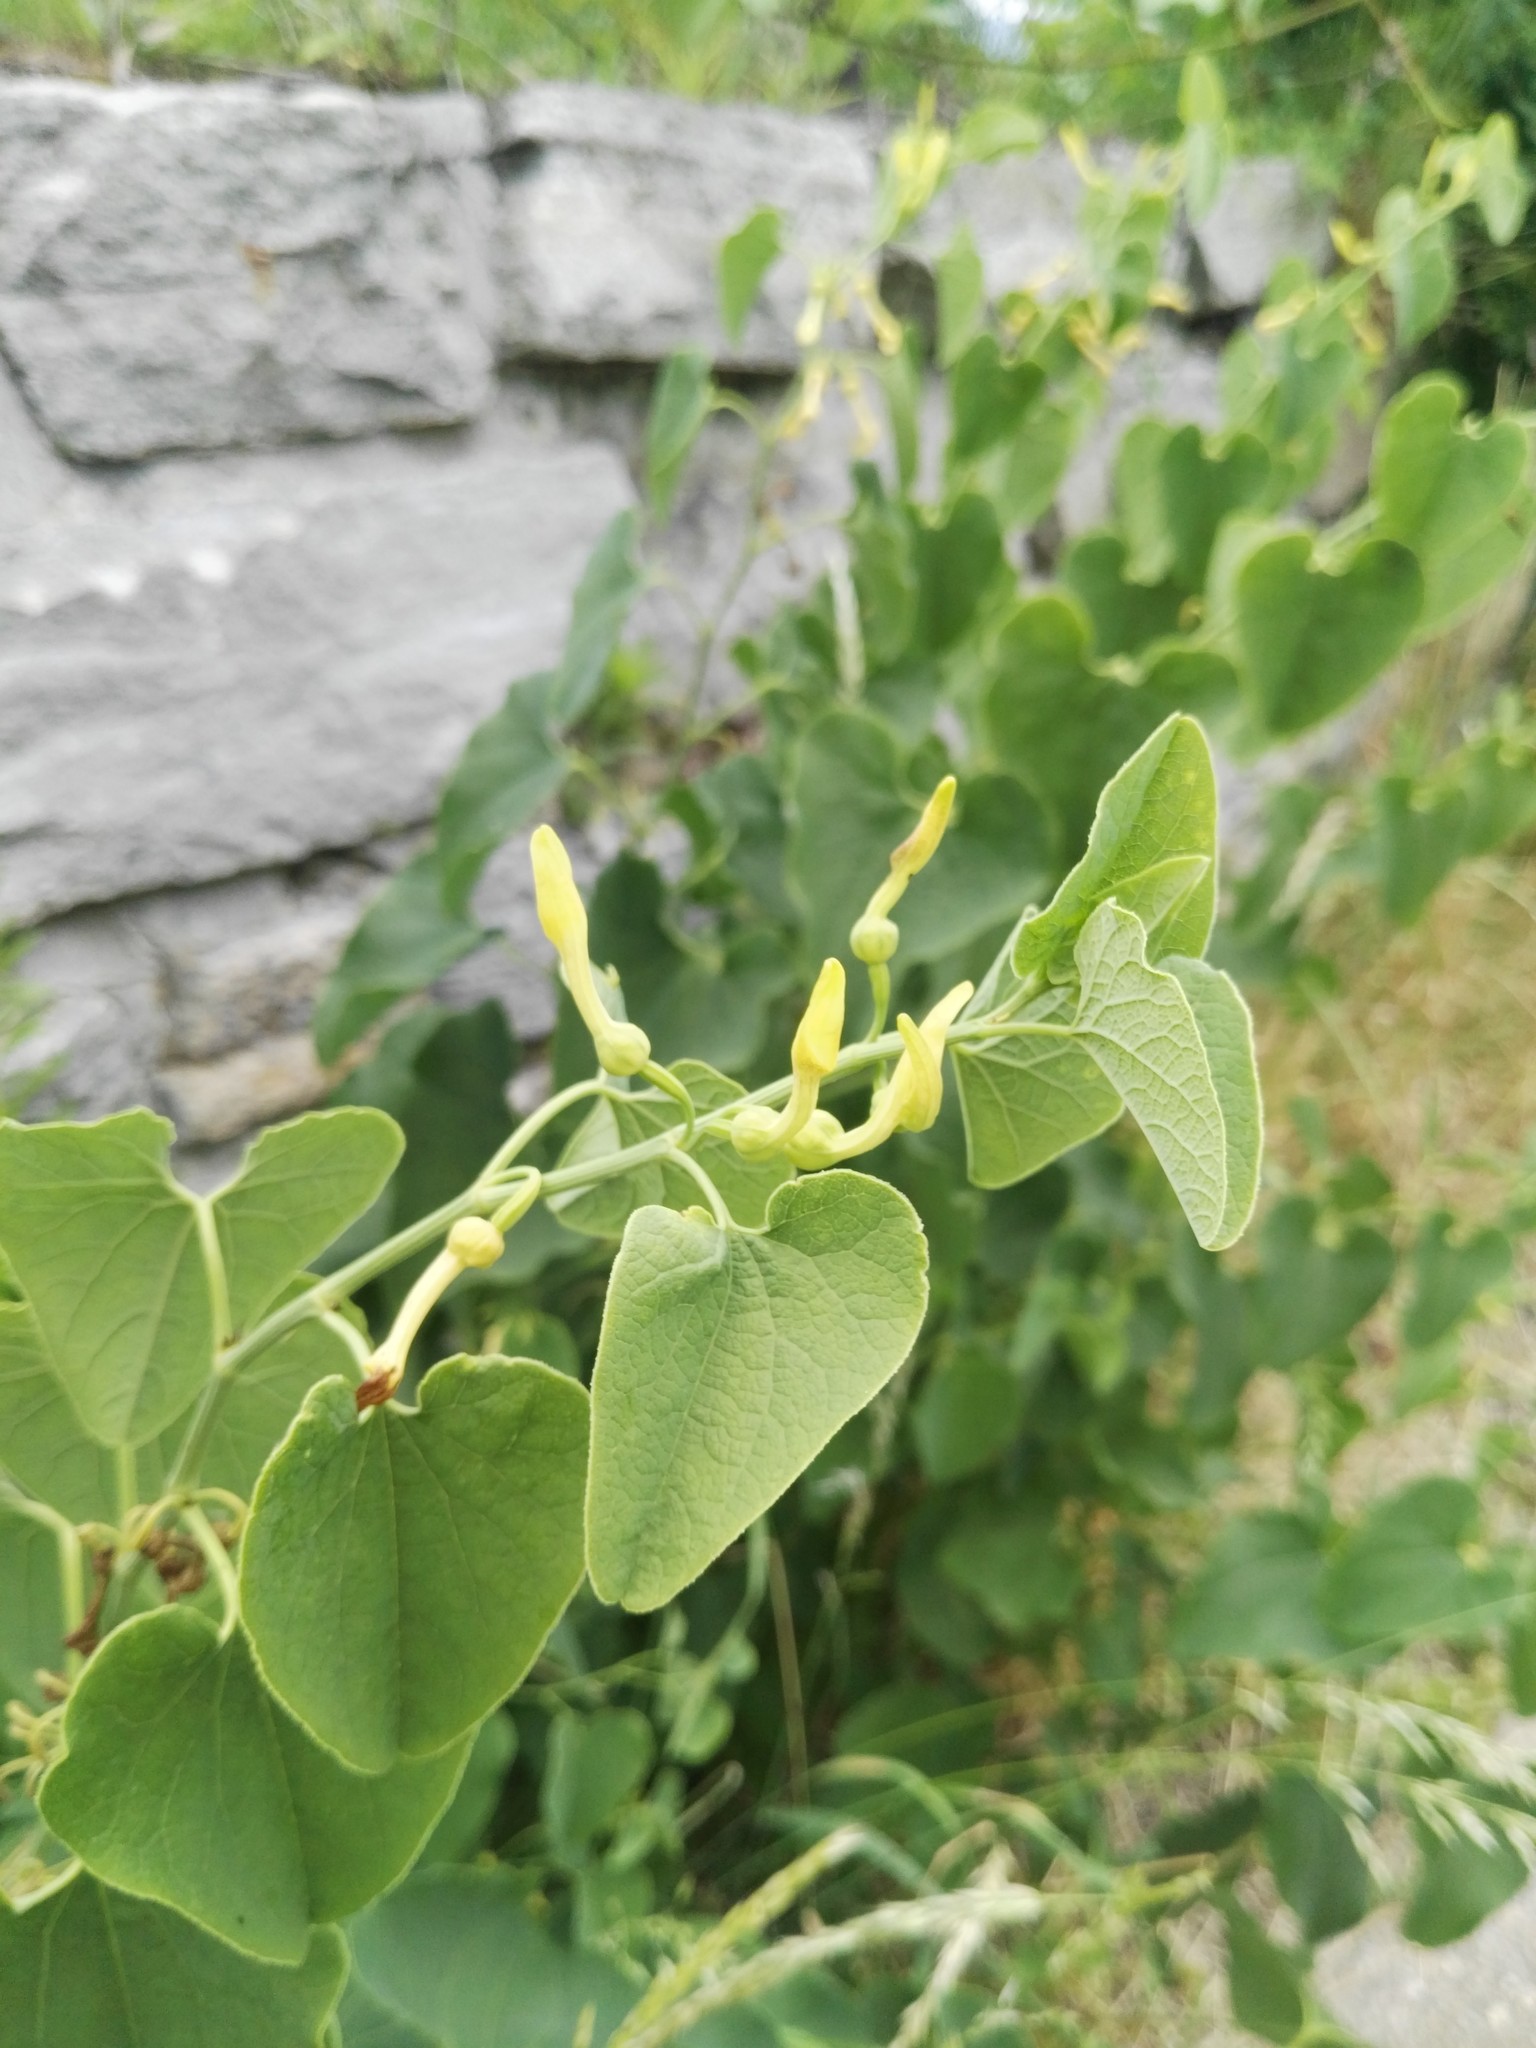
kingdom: Plantae
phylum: Tracheophyta
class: Magnoliopsida
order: Piperales
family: Aristolochiaceae
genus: Aristolochia
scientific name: Aristolochia clematitis
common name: Birthwort
